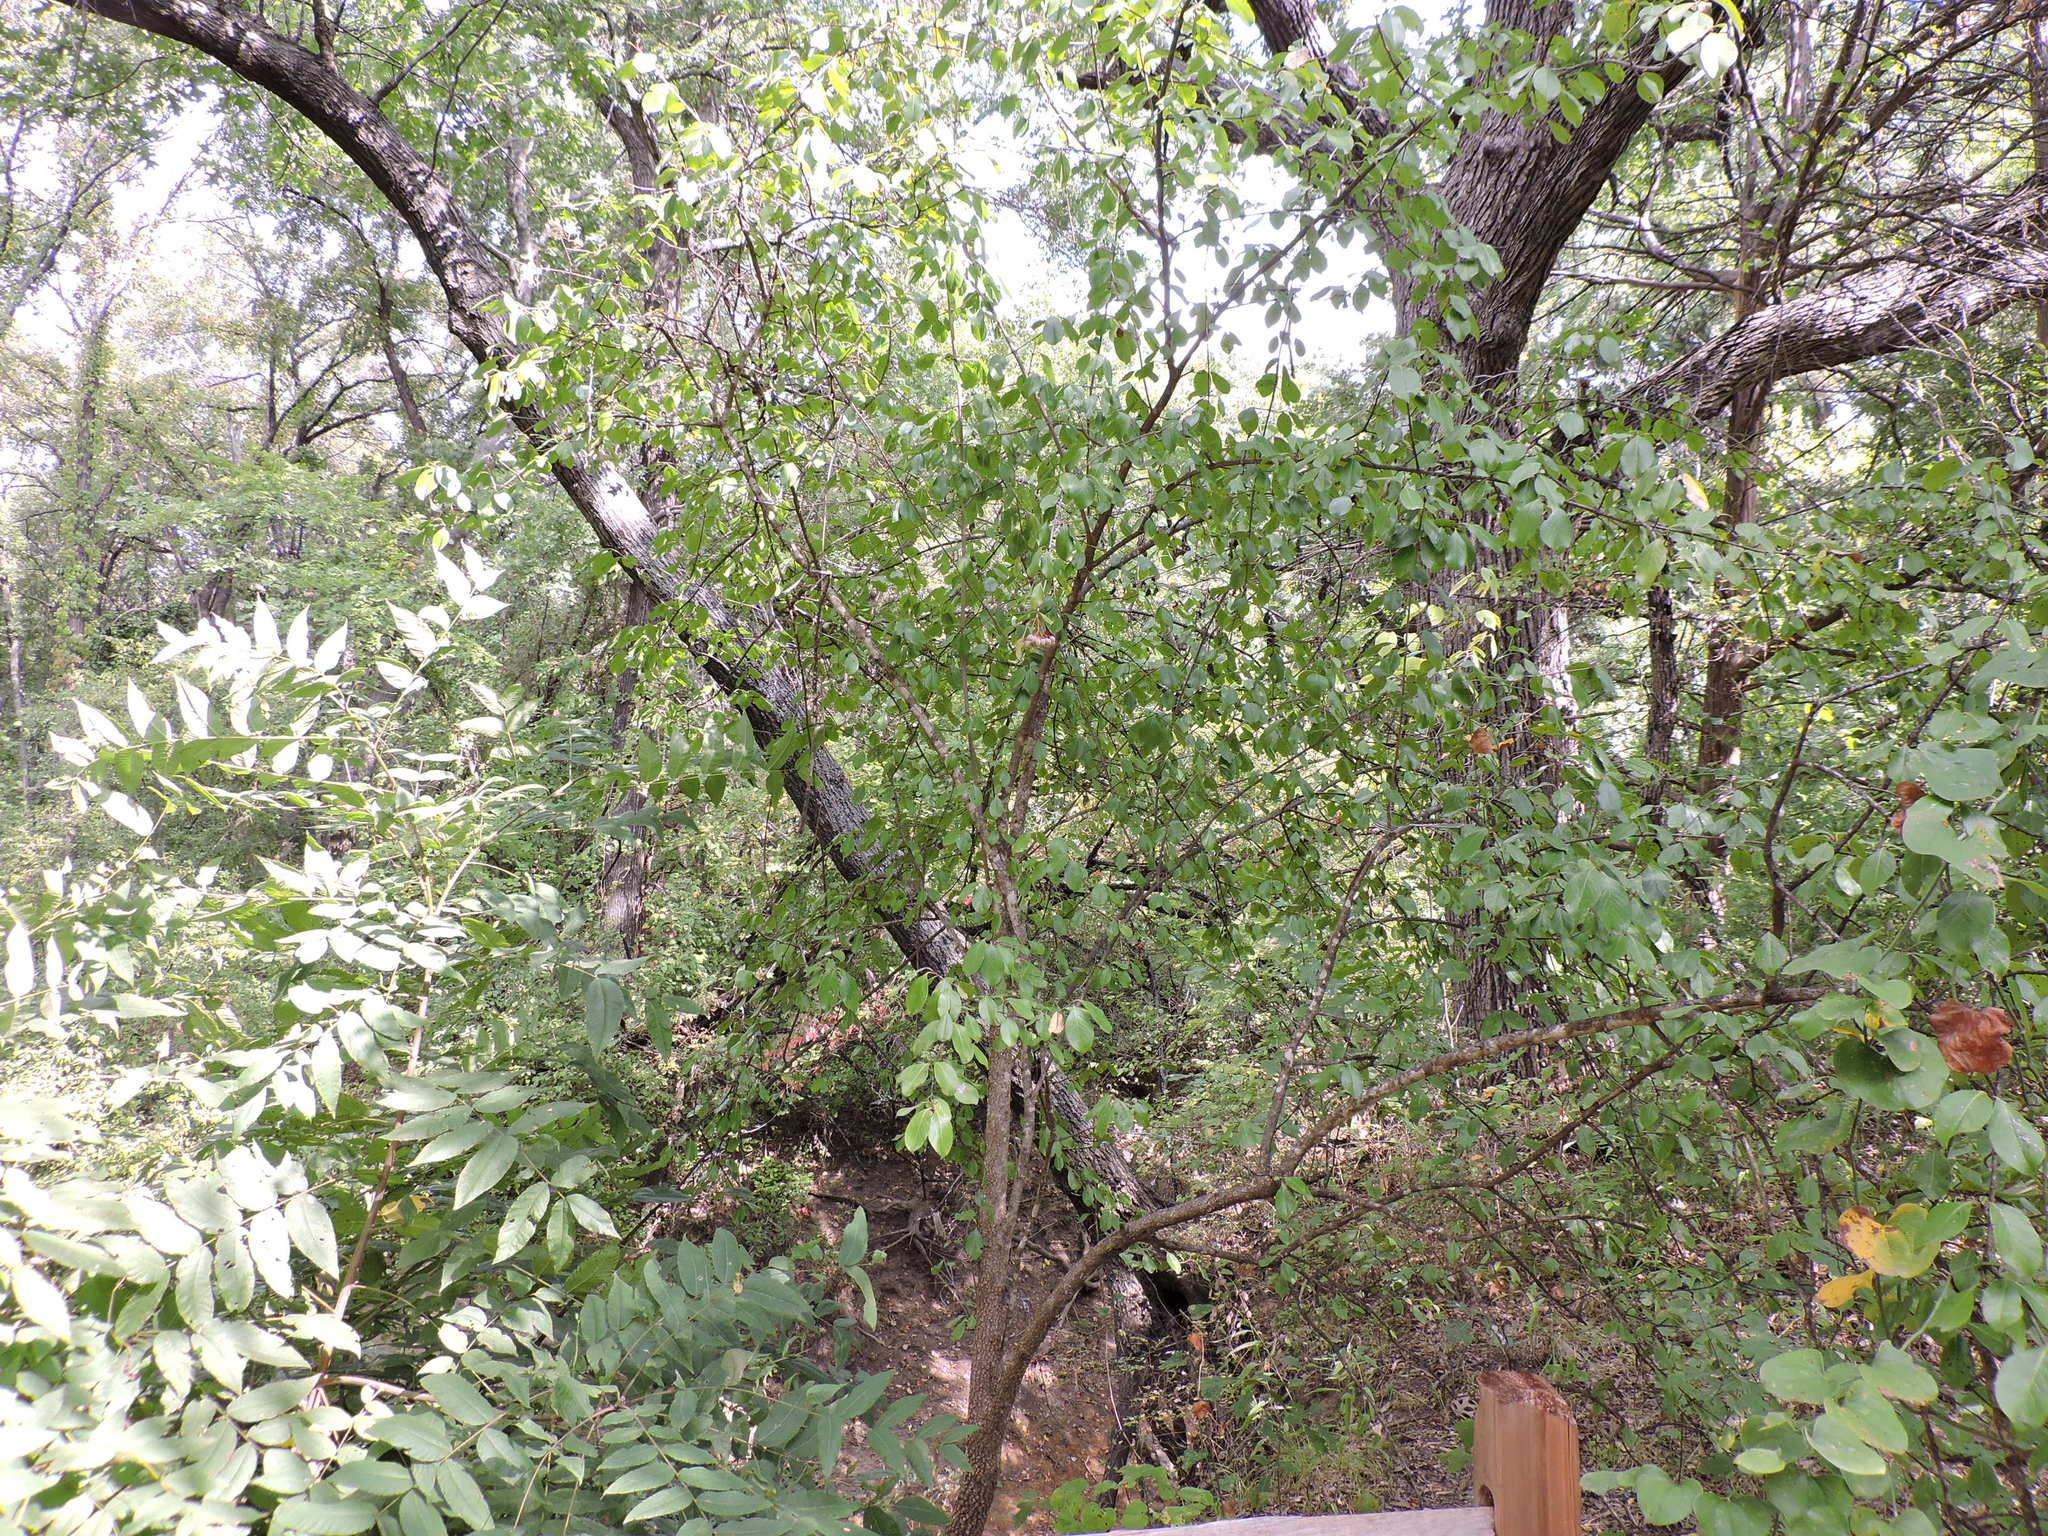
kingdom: Plantae
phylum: Tracheophyta
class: Magnoliopsida
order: Dipsacales
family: Viburnaceae
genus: Viburnum
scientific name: Viburnum rufidulum
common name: Blue haw
